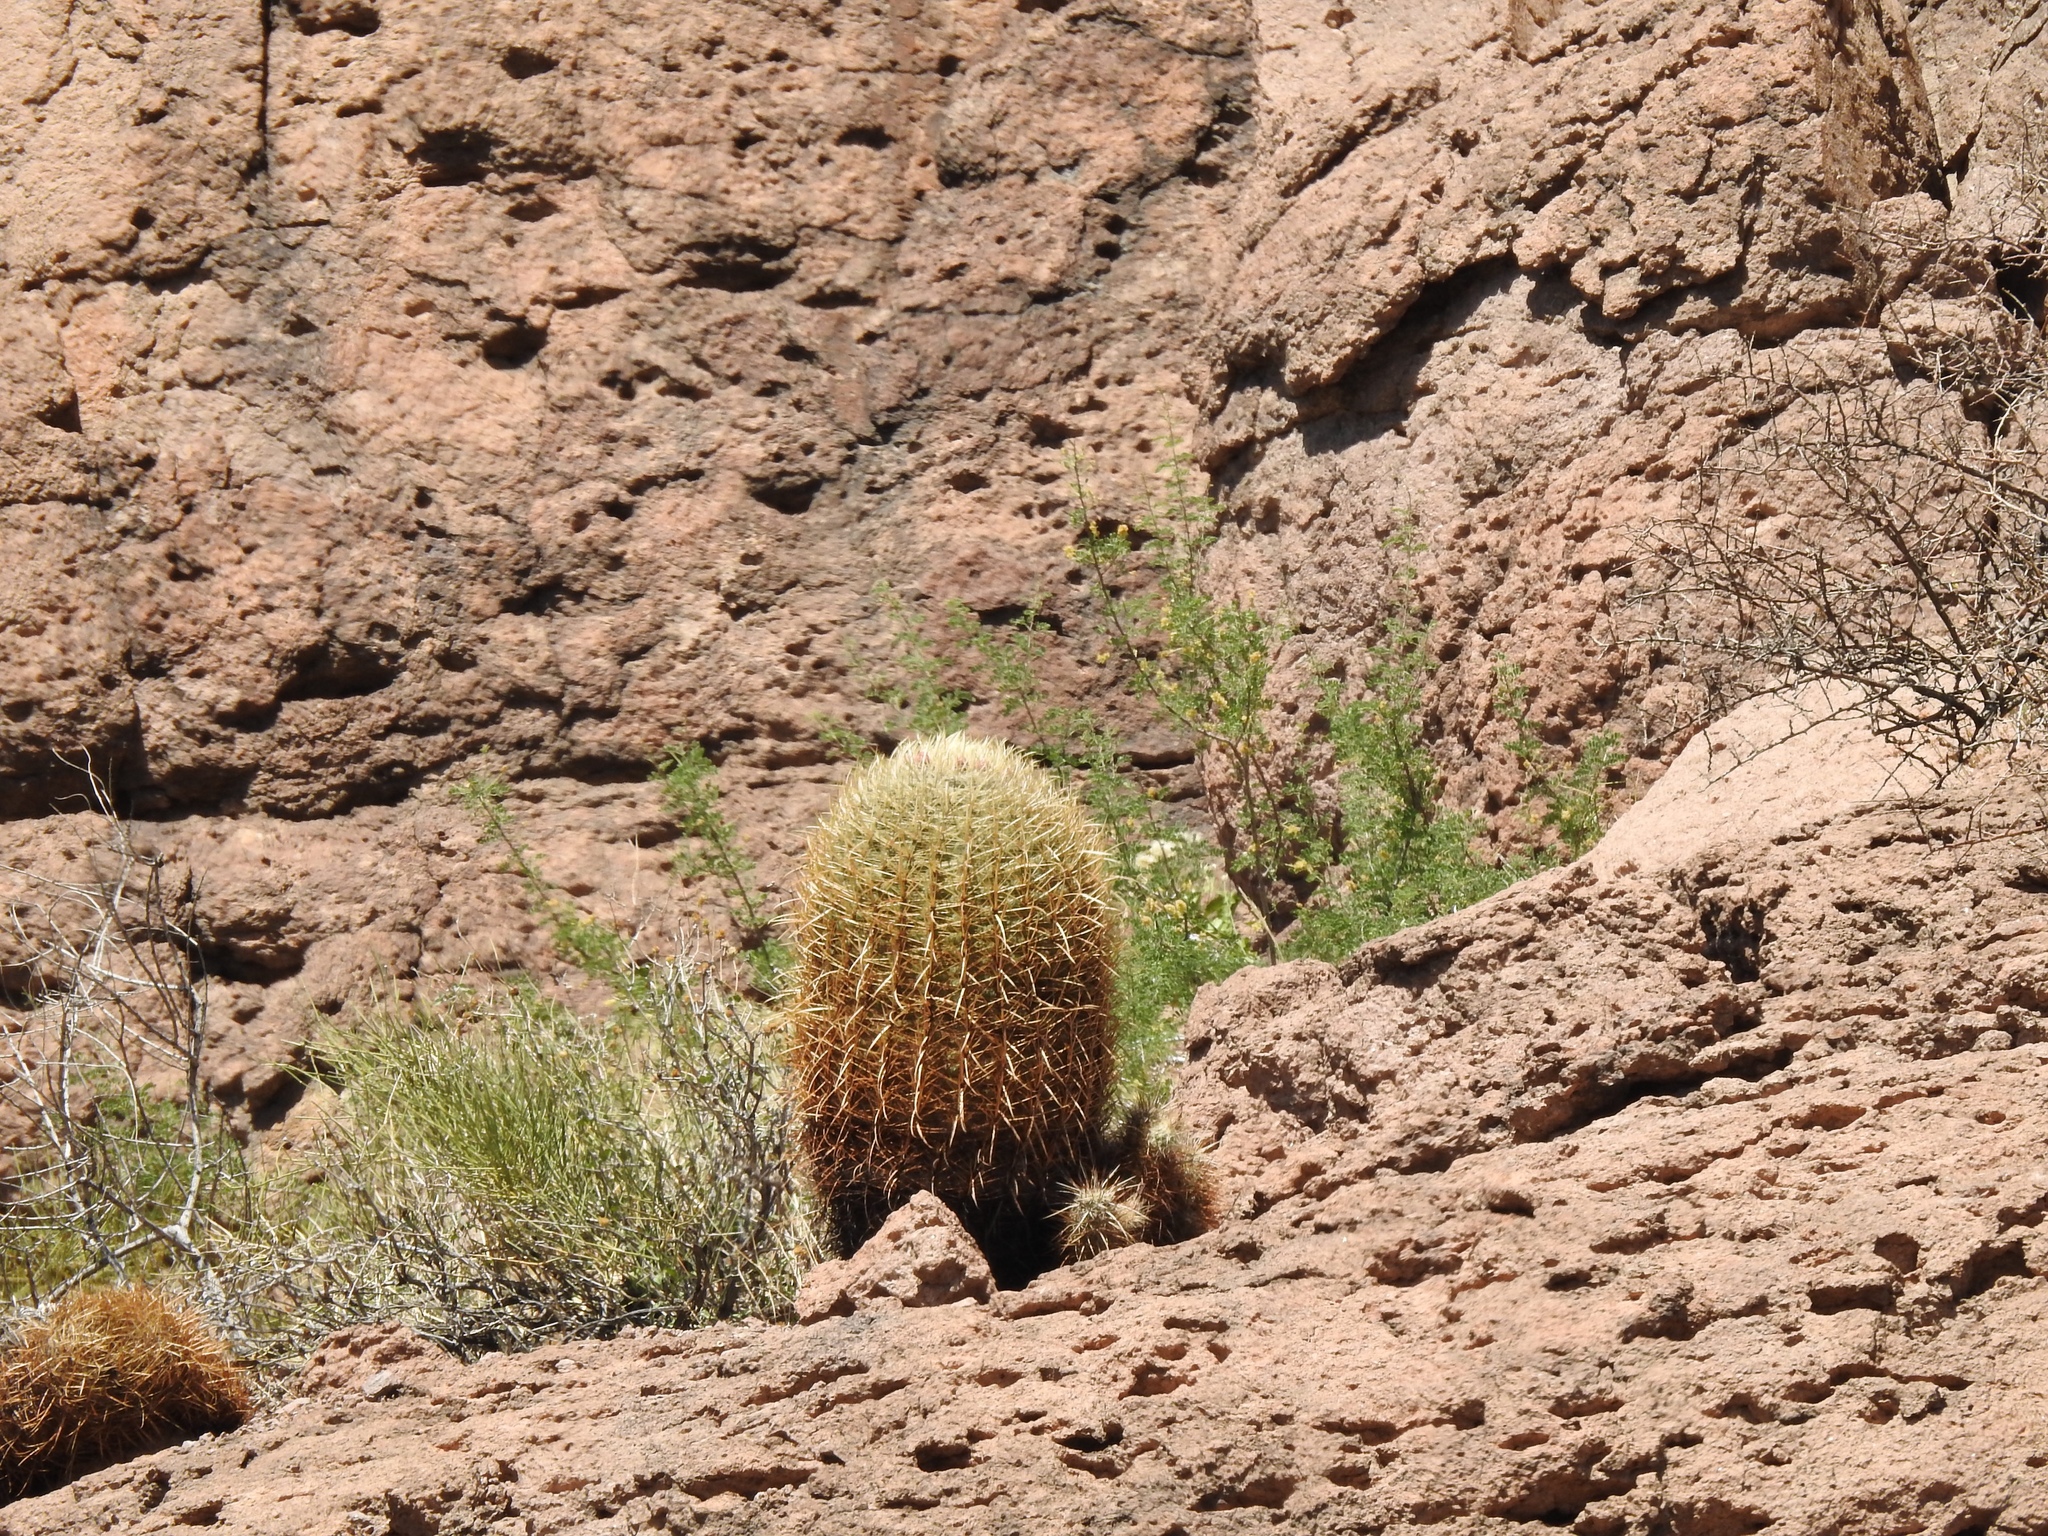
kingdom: Plantae
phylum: Tracheophyta
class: Magnoliopsida
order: Caryophyllales
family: Cactaceae
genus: Ferocactus
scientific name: Ferocactus cylindraceus
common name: California barrel cactus
